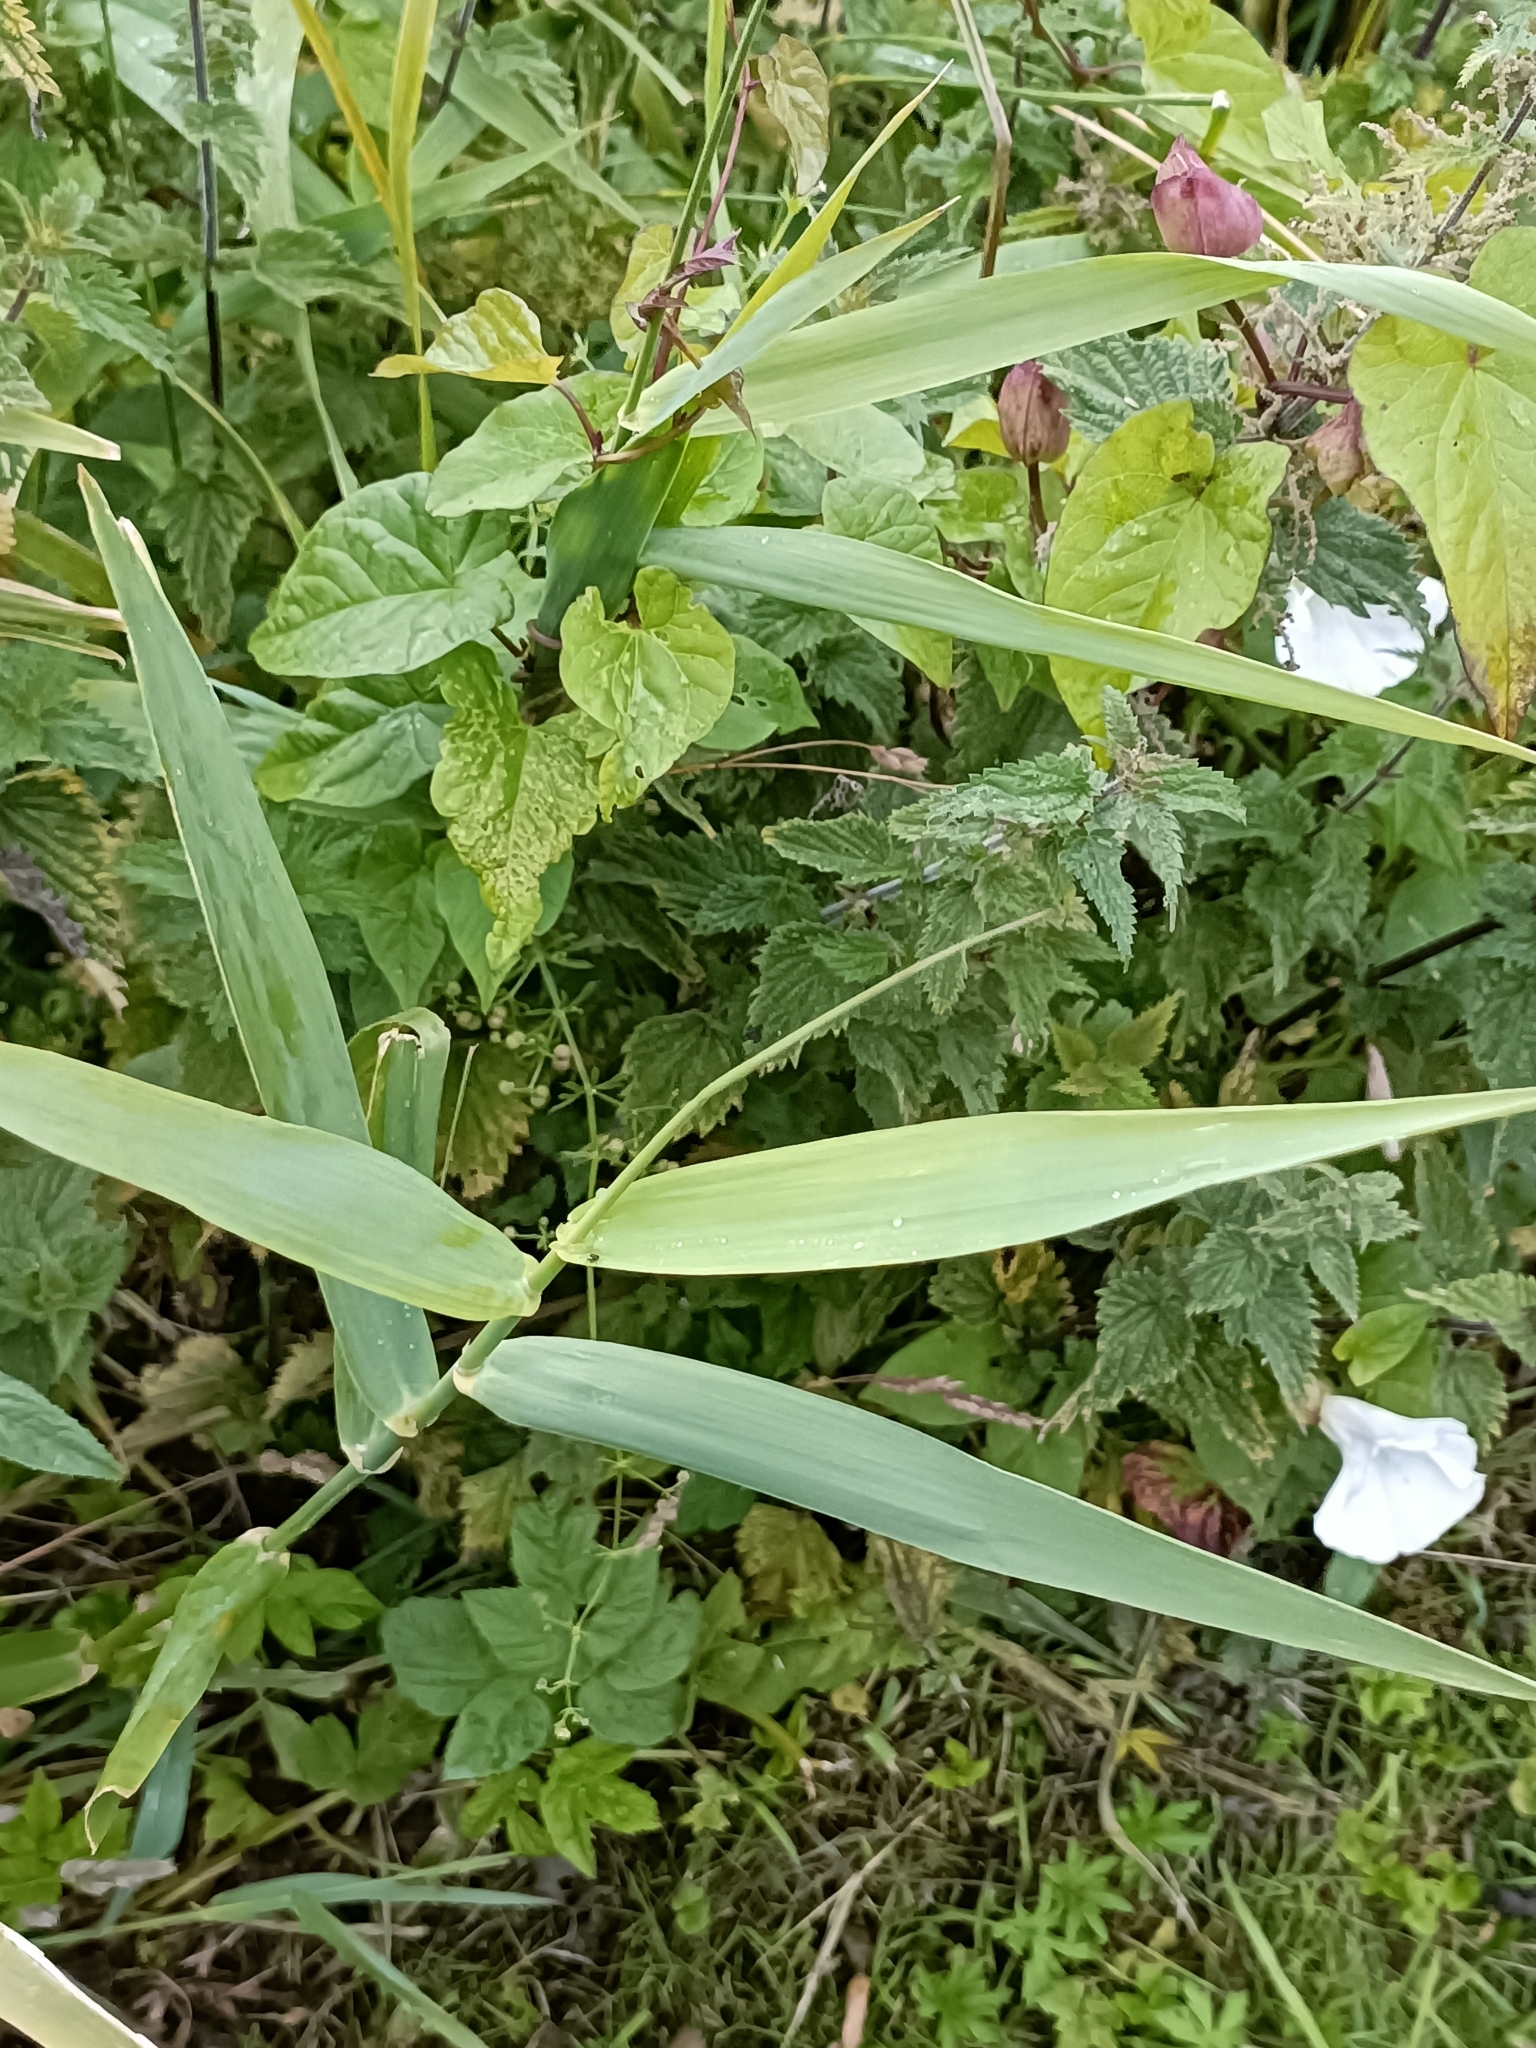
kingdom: Plantae
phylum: Tracheophyta
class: Liliopsida
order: Poales
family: Poaceae
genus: Phalaris
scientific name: Phalaris arundinacea
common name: Reed canary-grass
